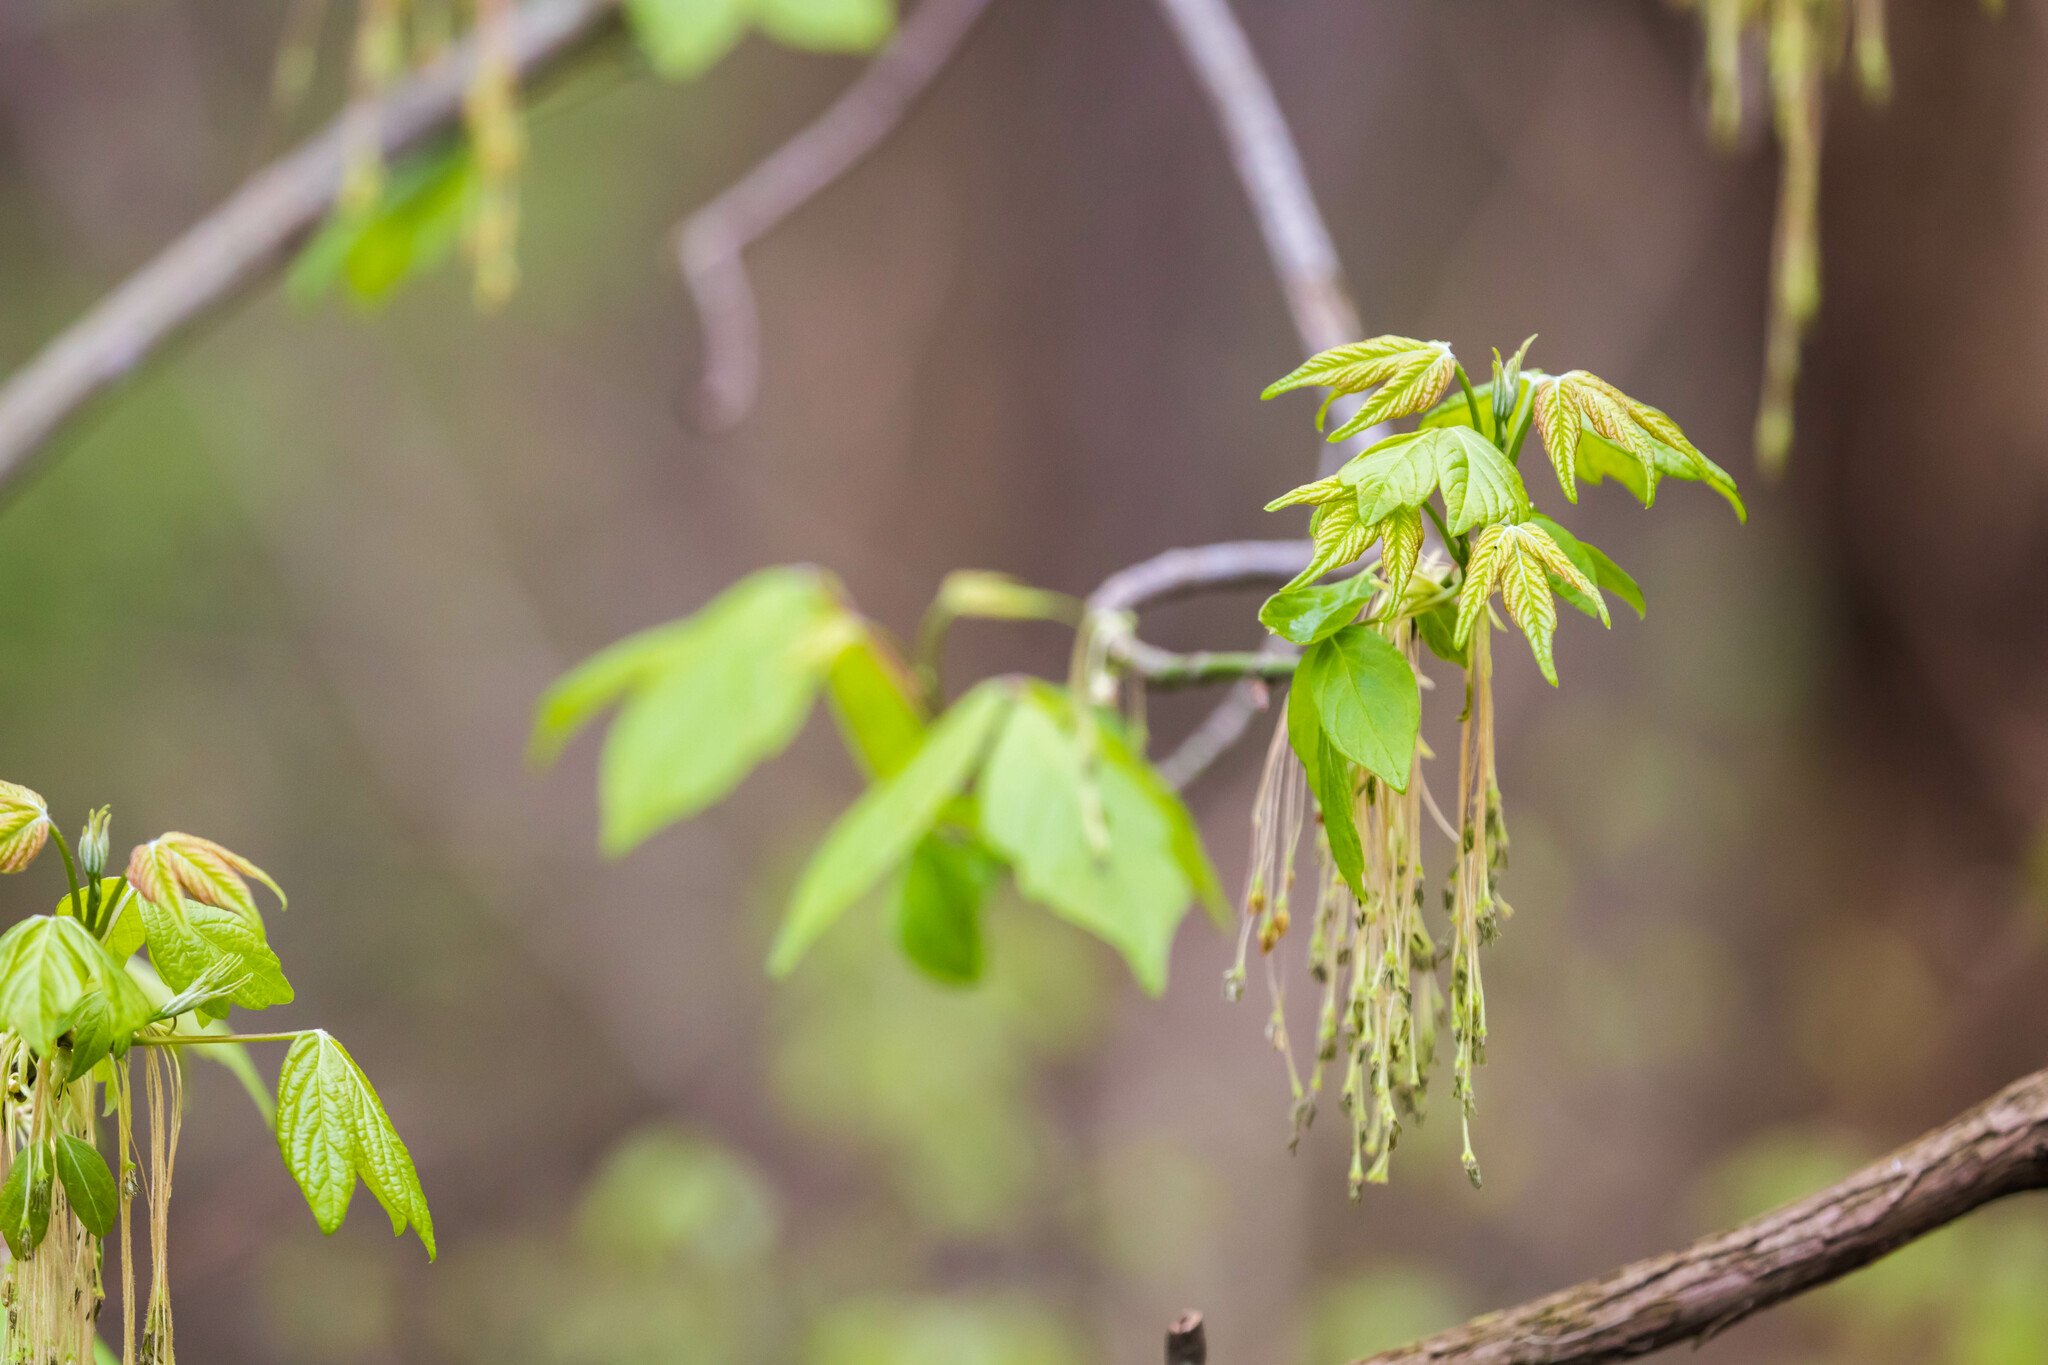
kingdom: Plantae
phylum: Tracheophyta
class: Magnoliopsida
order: Sapindales
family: Sapindaceae
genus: Acer
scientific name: Acer negundo
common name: Ashleaf maple
